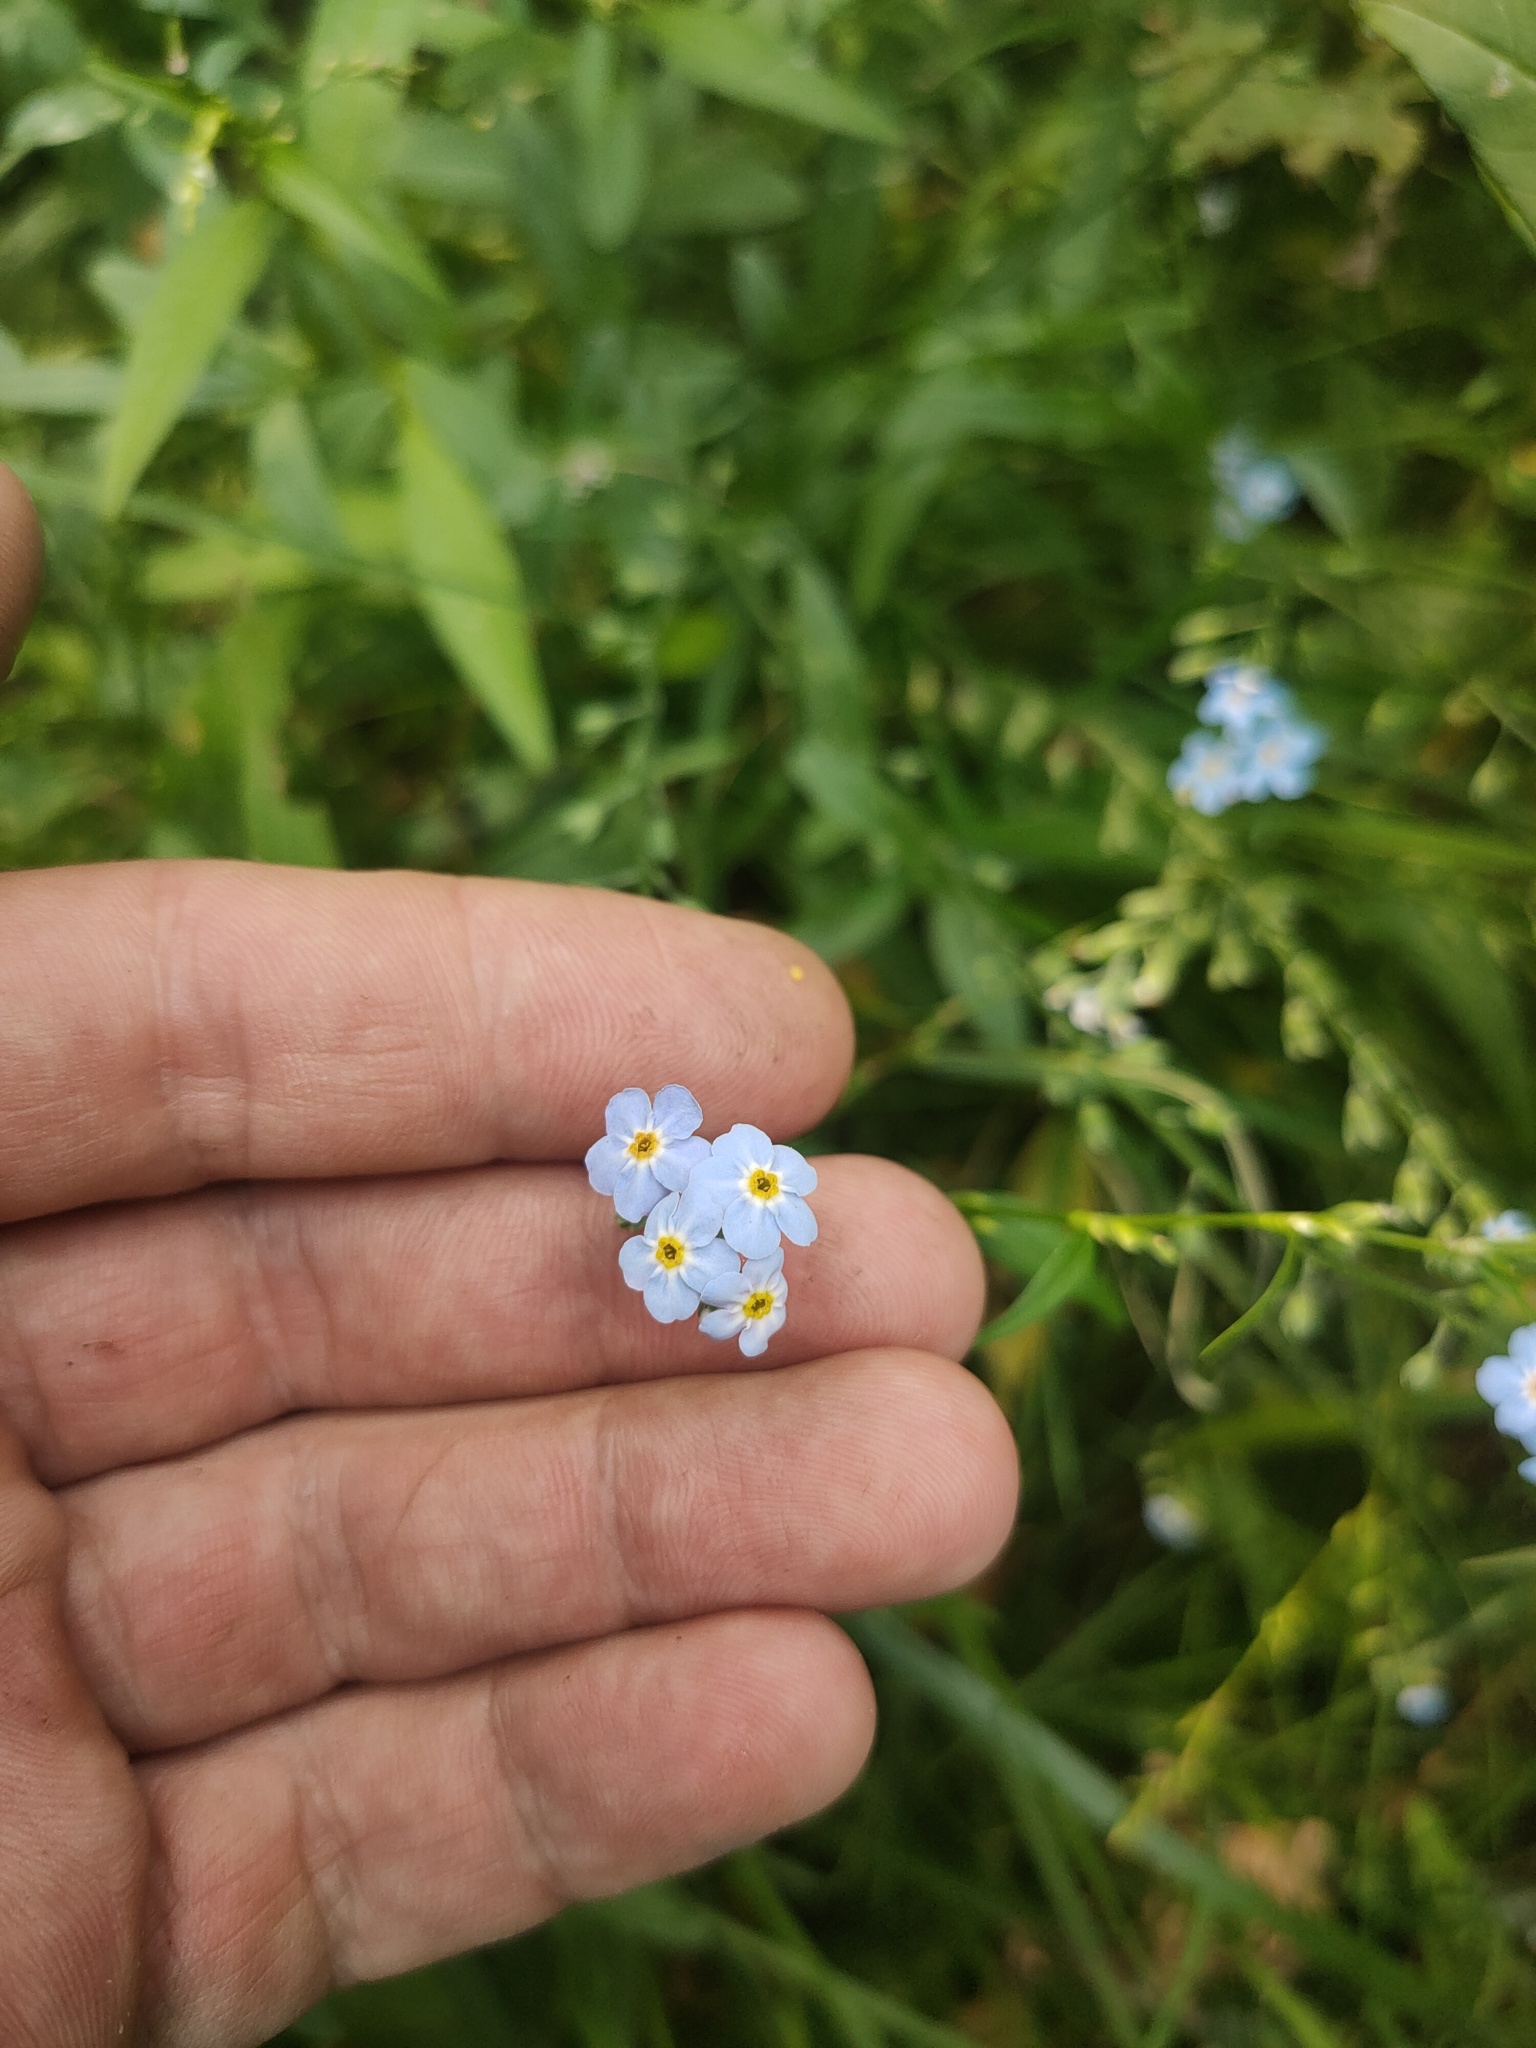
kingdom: Plantae
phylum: Tracheophyta
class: Magnoliopsida
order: Boraginales
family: Boraginaceae
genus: Myosotis
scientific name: Myosotis scorpioides
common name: Water forget-me-not
